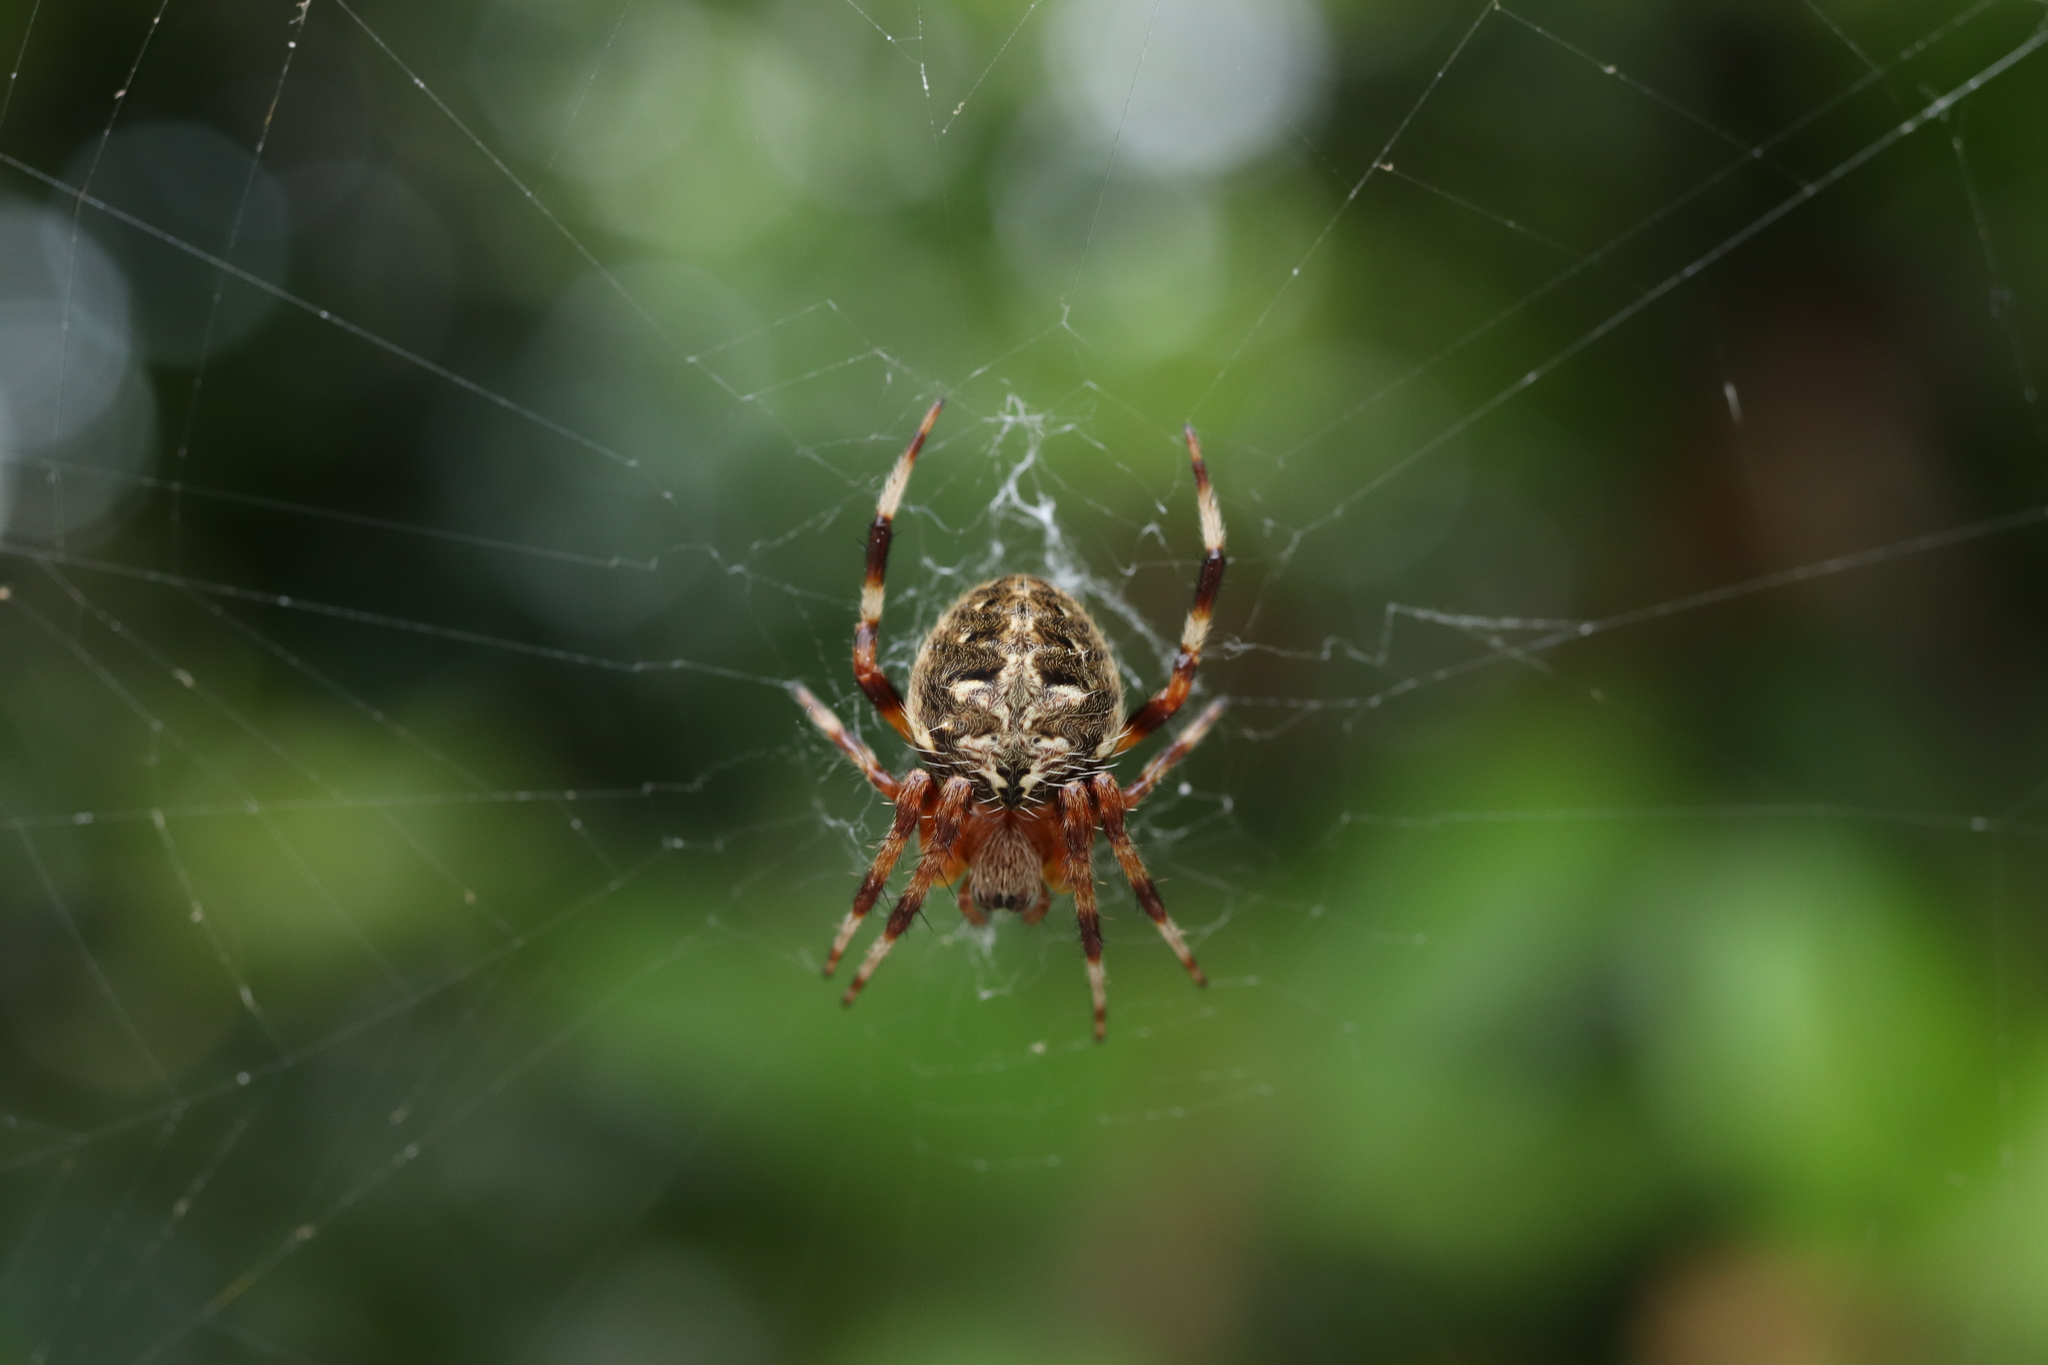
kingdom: Animalia
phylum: Arthropoda
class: Arachnida
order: Araneae
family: Araneidae
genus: Neoscona
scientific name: Neoscona scylla
